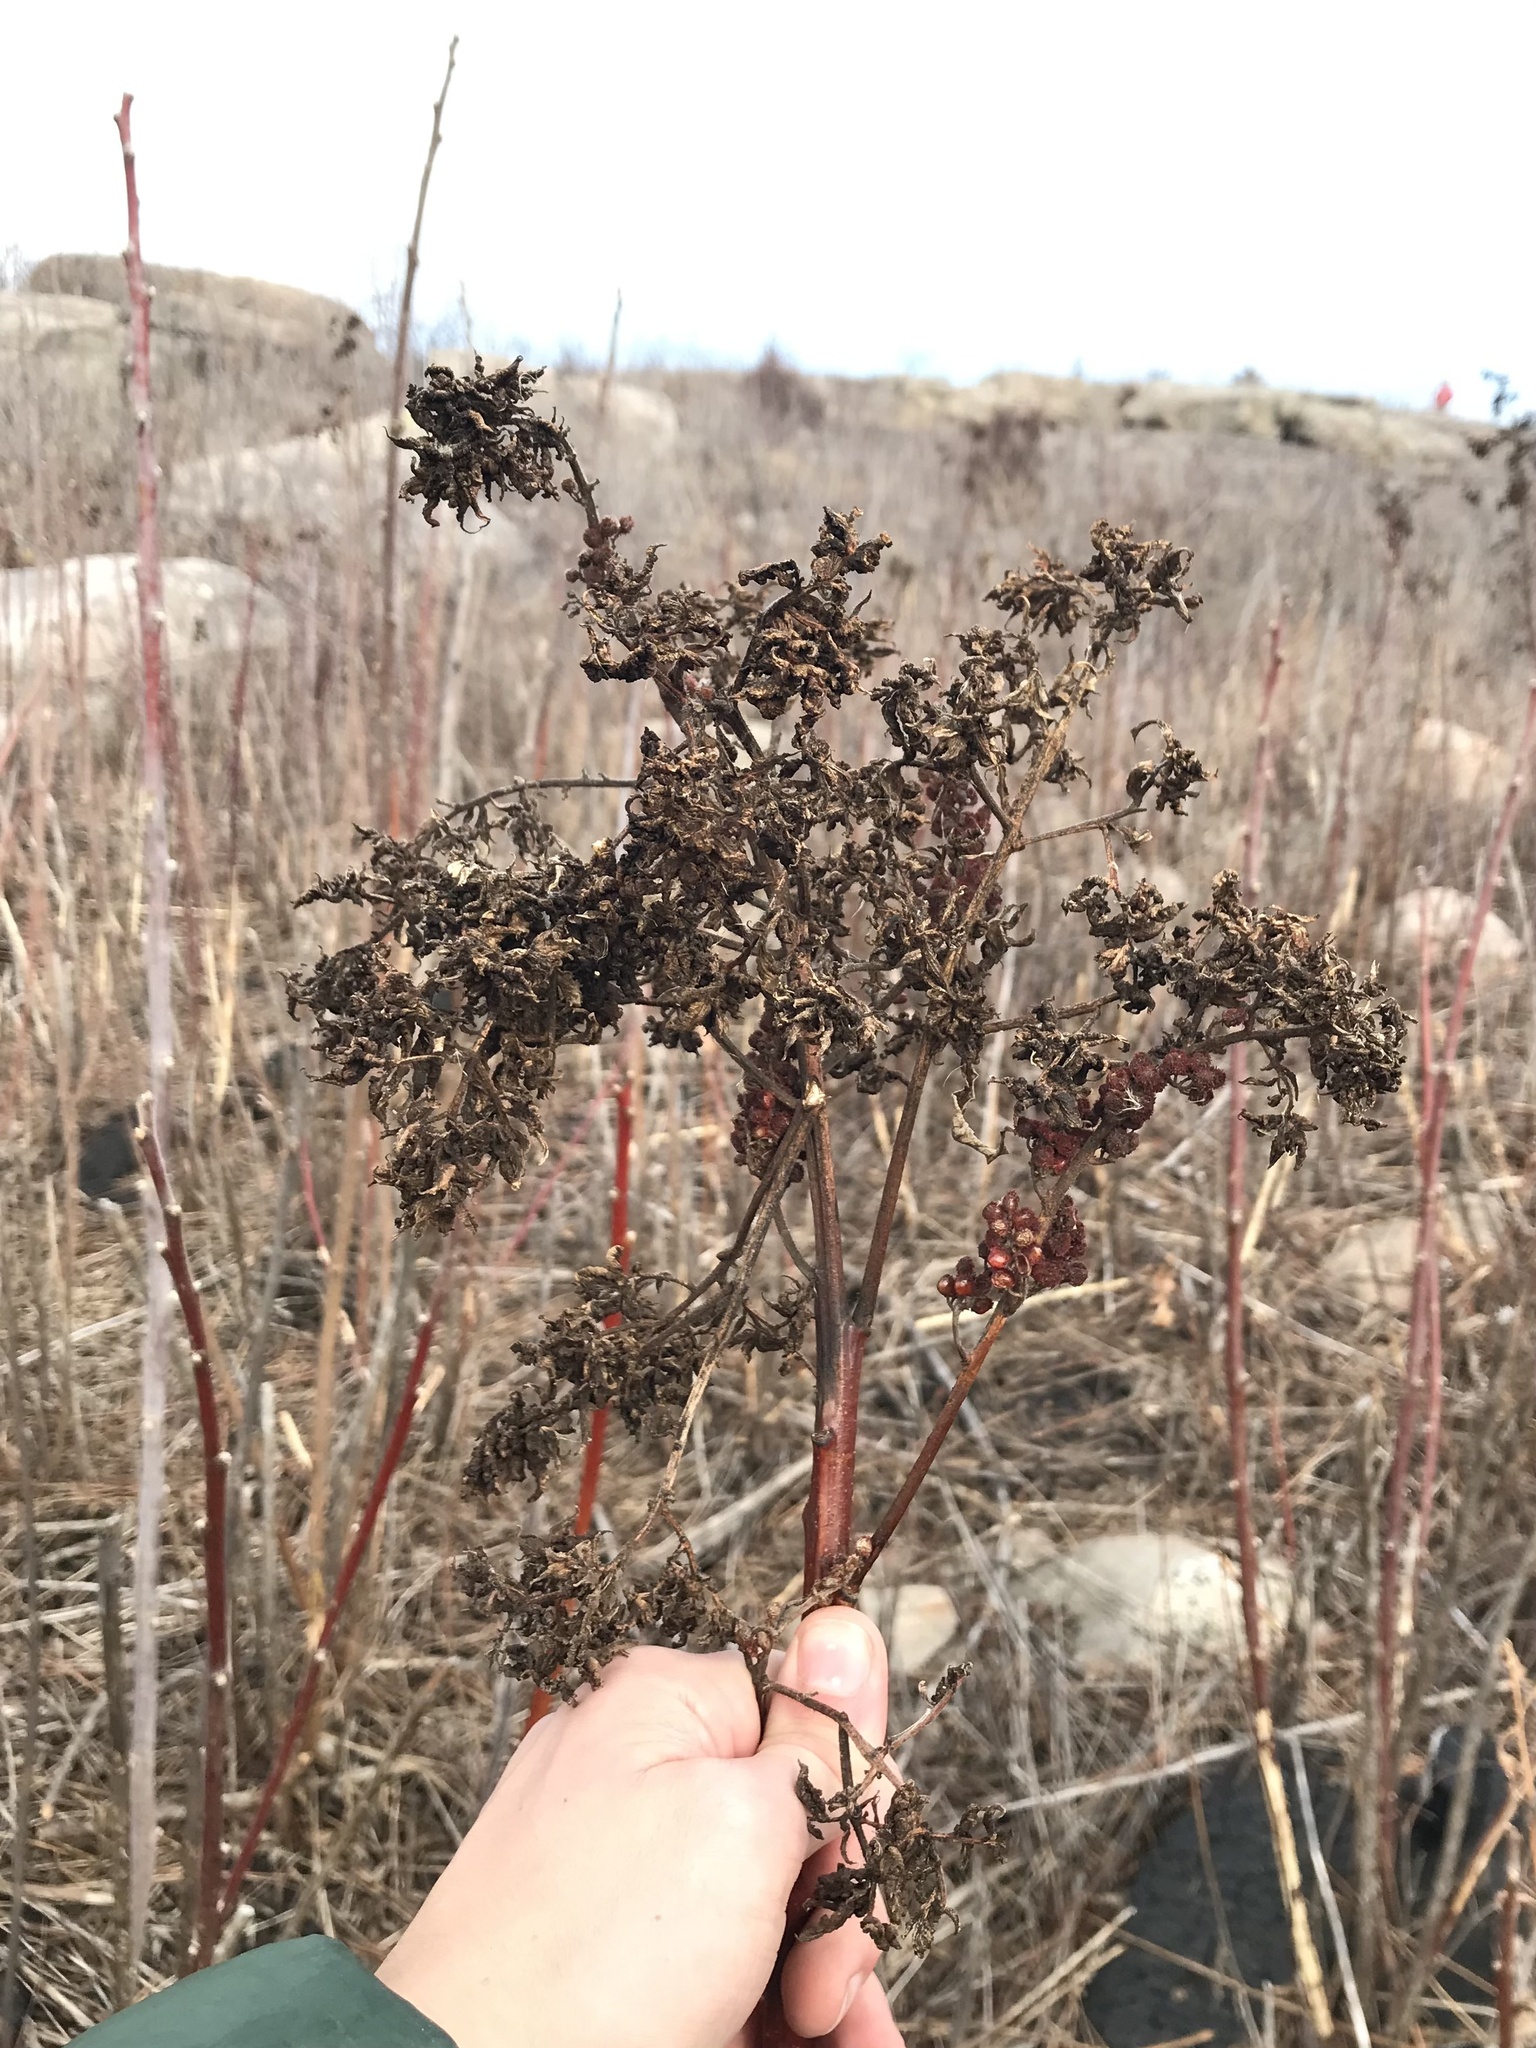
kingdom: Animalia
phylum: Arthropoda
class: Arachnida
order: Trombidiformes
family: Eriophyidae
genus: Eriophyes
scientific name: Eriophyes
